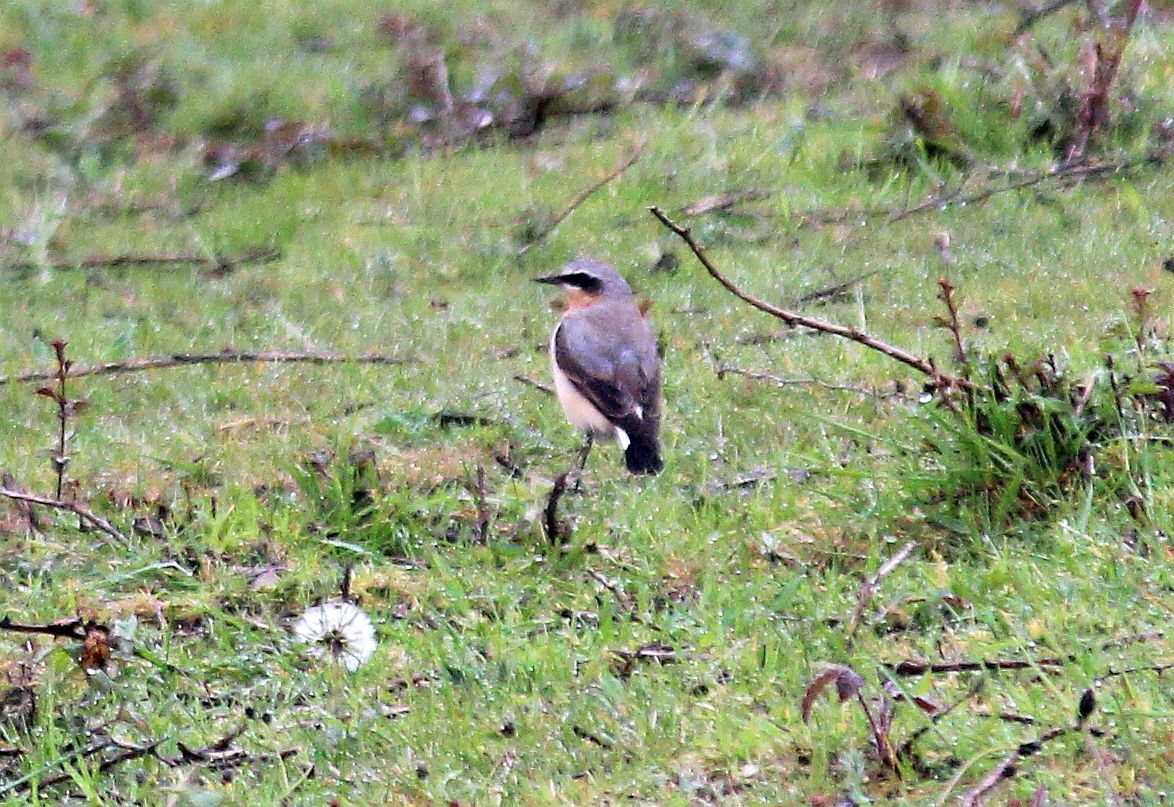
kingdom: Animalia
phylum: Chordata
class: Aves
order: Passeriformes
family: Muscicapidae
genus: Oenanthe
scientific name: Oenanthe oenanthe
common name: Northern wheatear
